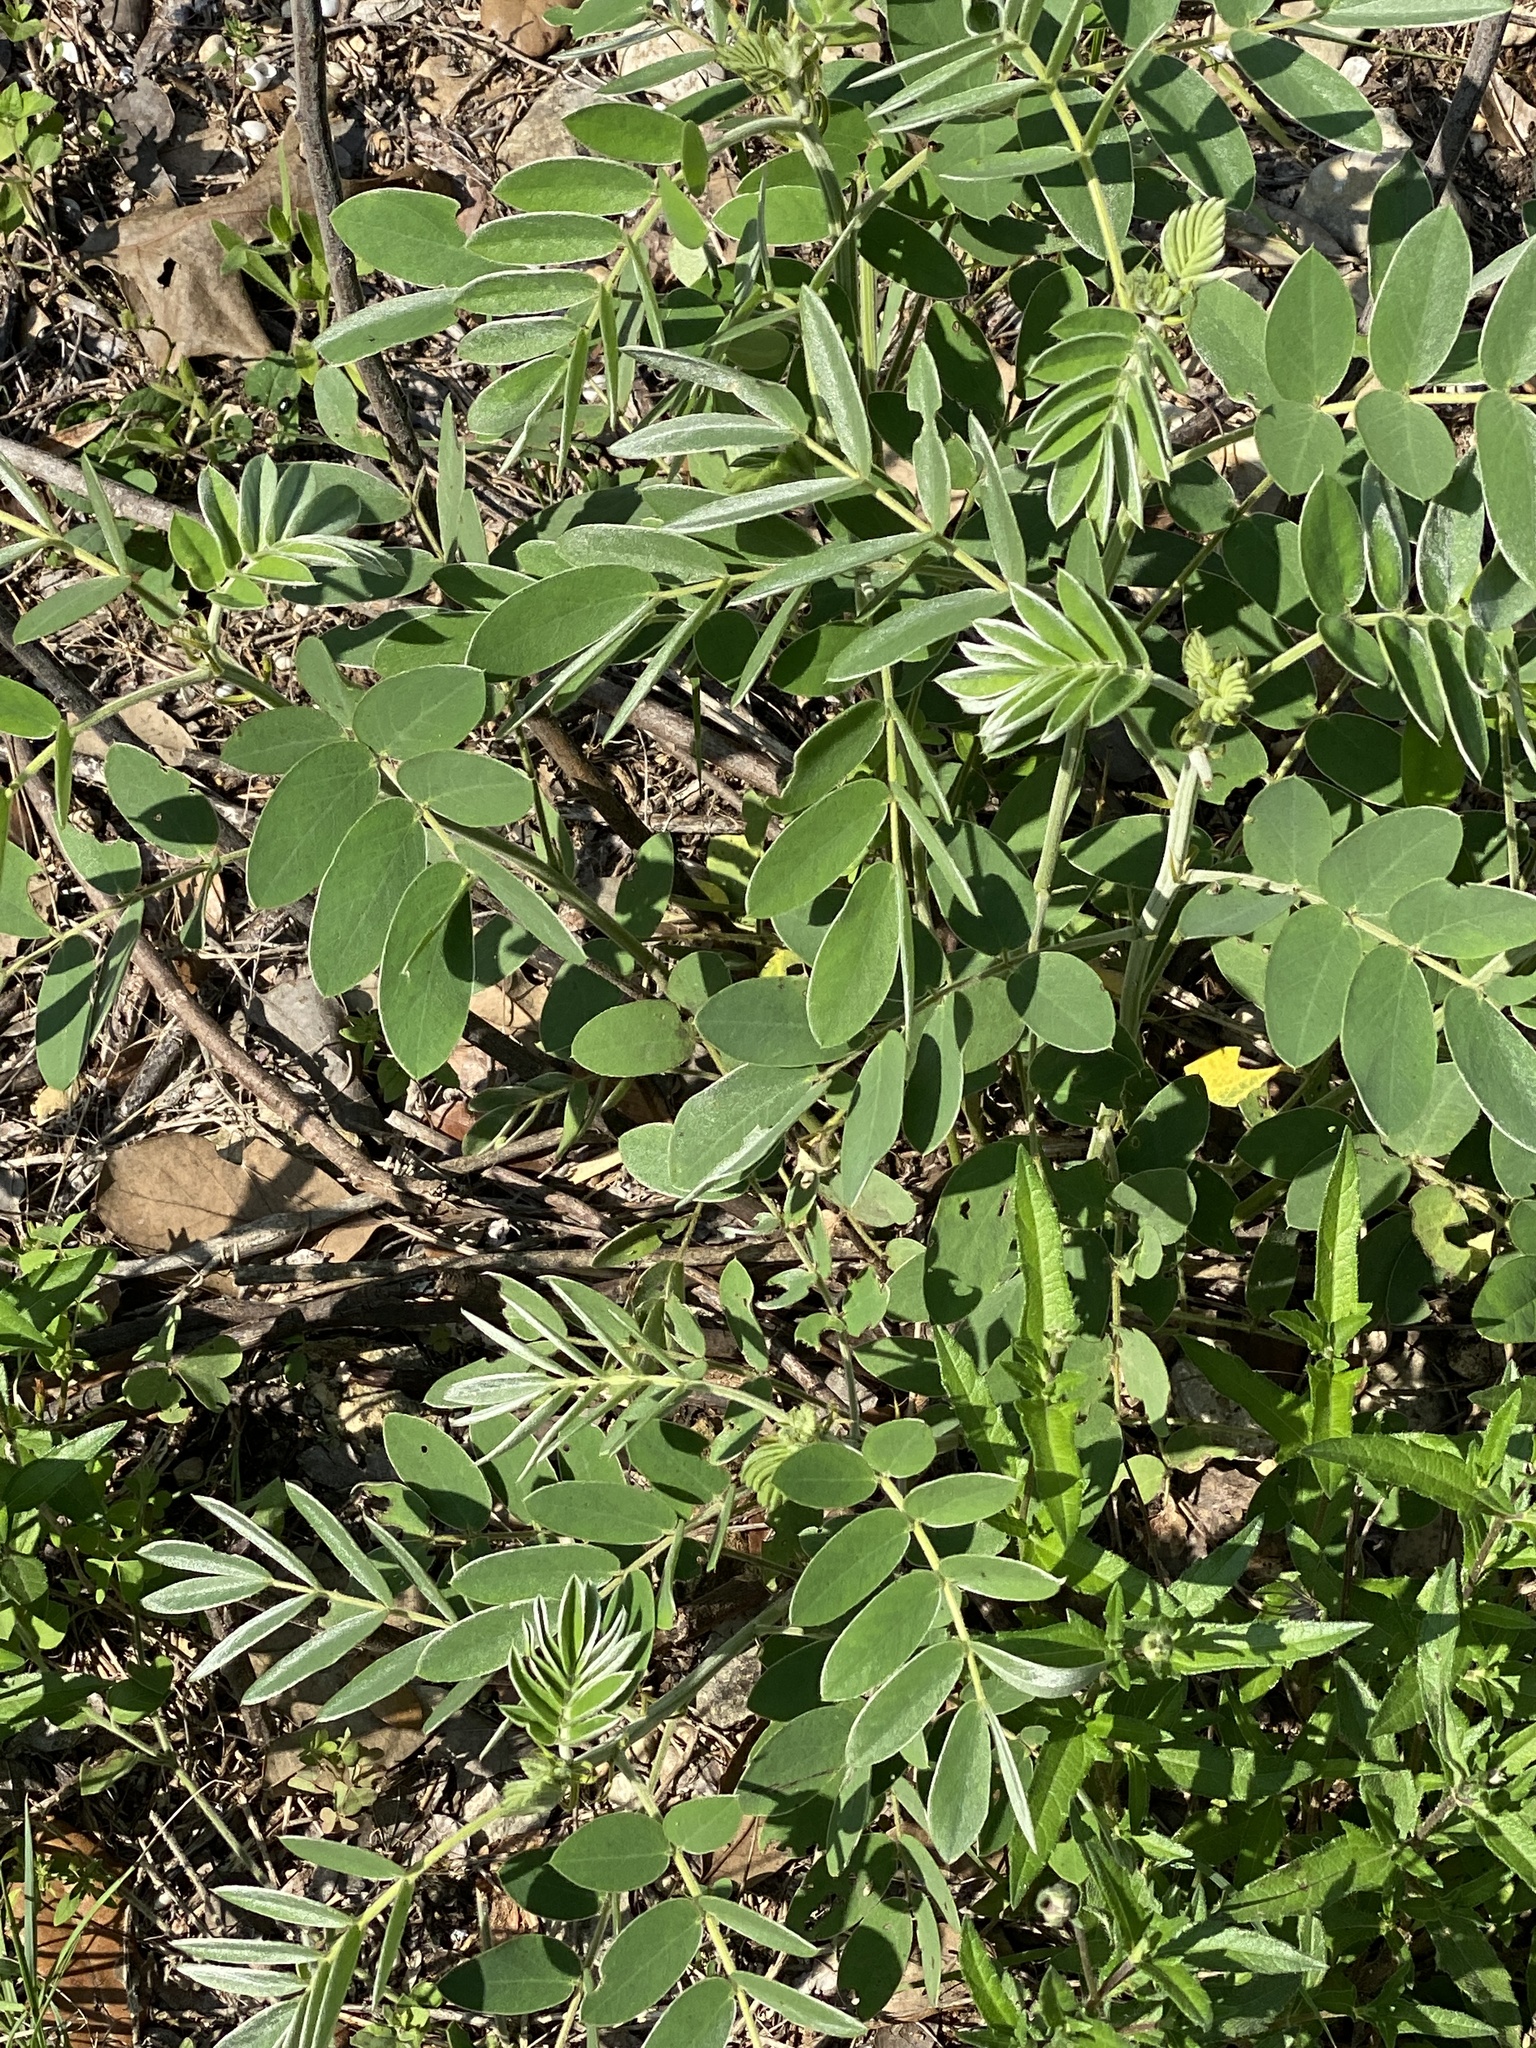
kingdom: Plantae
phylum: Tracheophyta
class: Magnoliopsida
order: Fabales
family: Fabaceae
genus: Senna
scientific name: Senna lindheimeriana
